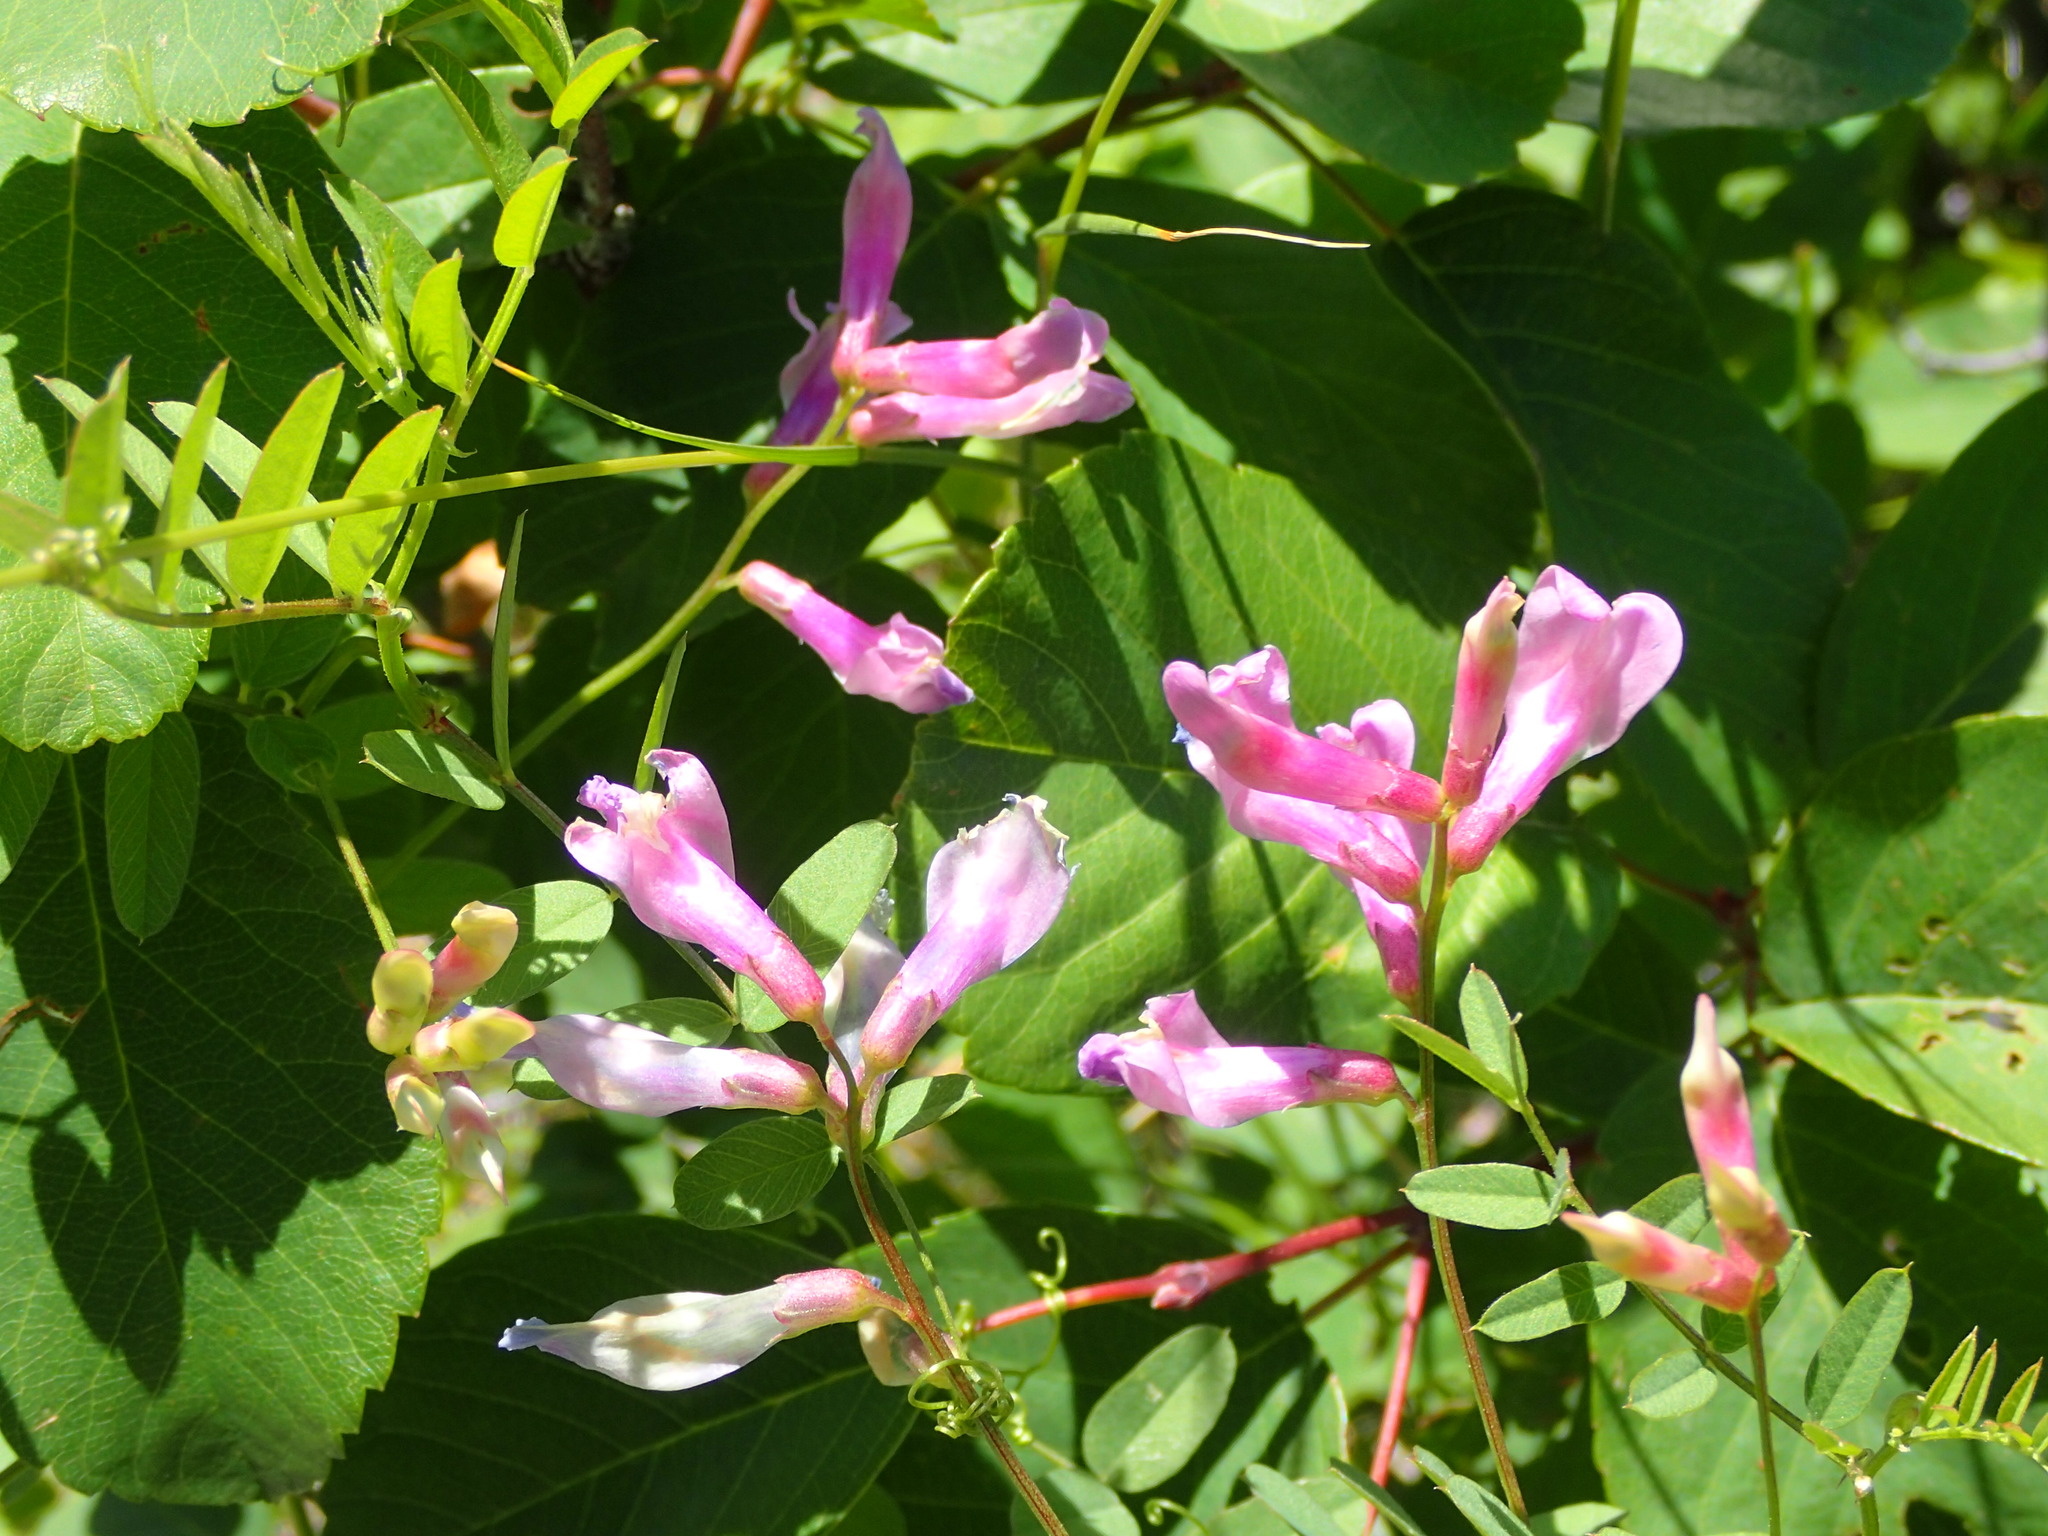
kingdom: Plantae
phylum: Tracheophyta
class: Magnoliopsida
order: Fabales
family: Fabaceae
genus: Vicia
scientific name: Vicia americana
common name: American vetch
